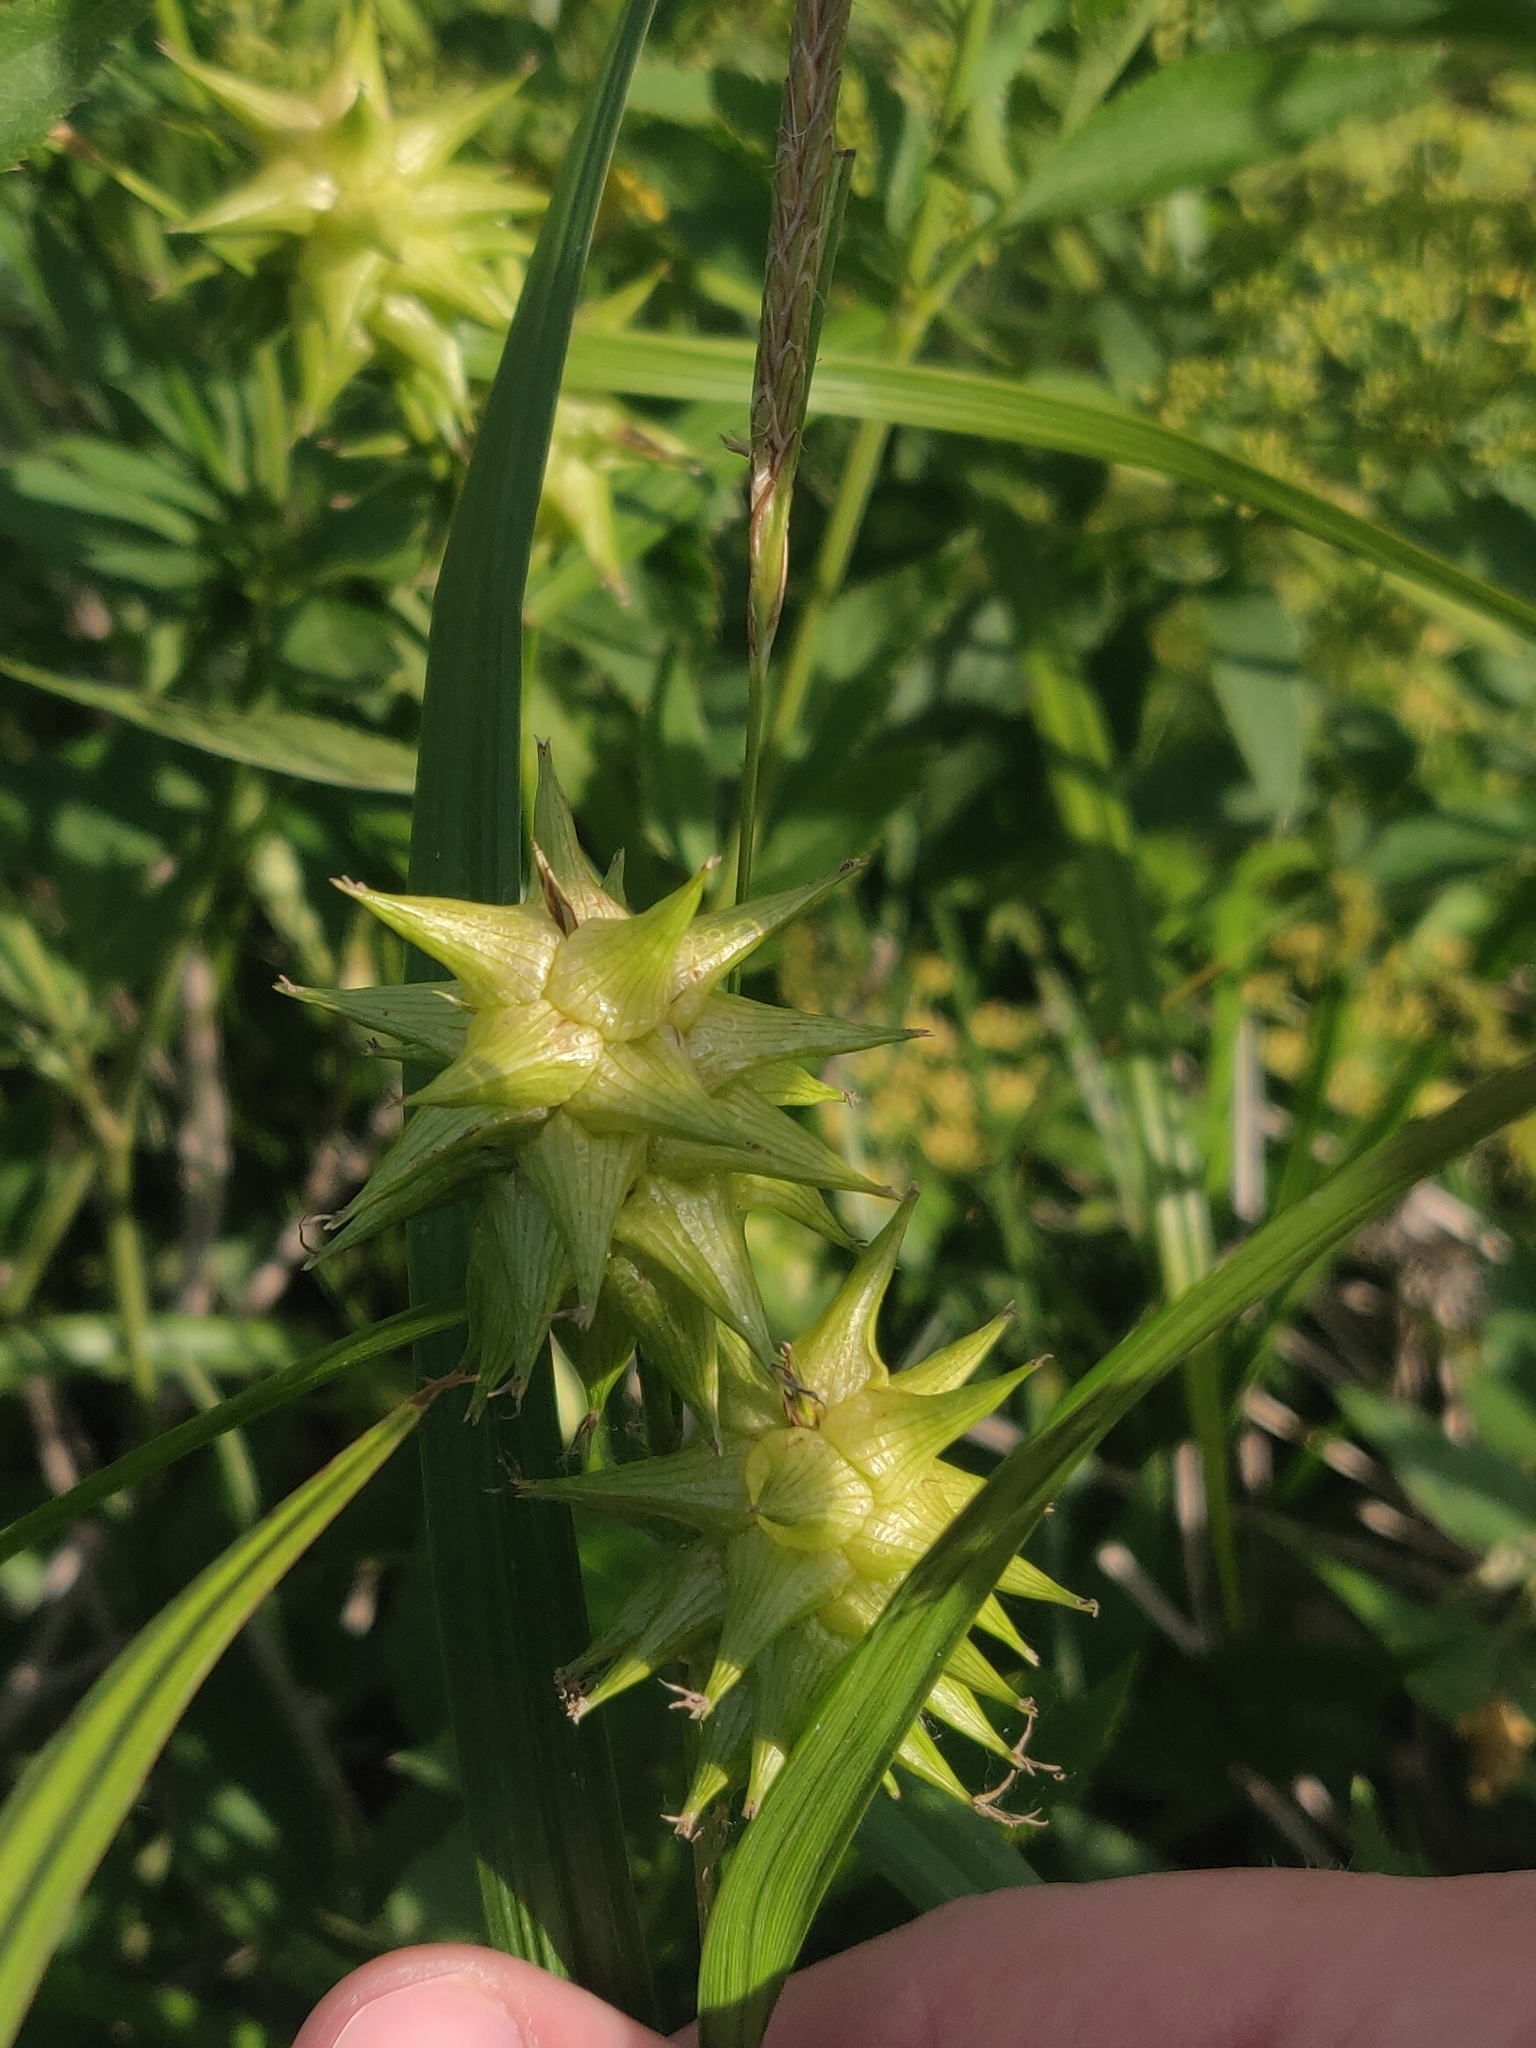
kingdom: Plantae
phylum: Tracheophyta
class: Liliopsida
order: Poales
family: Cyperaceae
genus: Carex
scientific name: Carex grayi
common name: Asa gray's sedge
